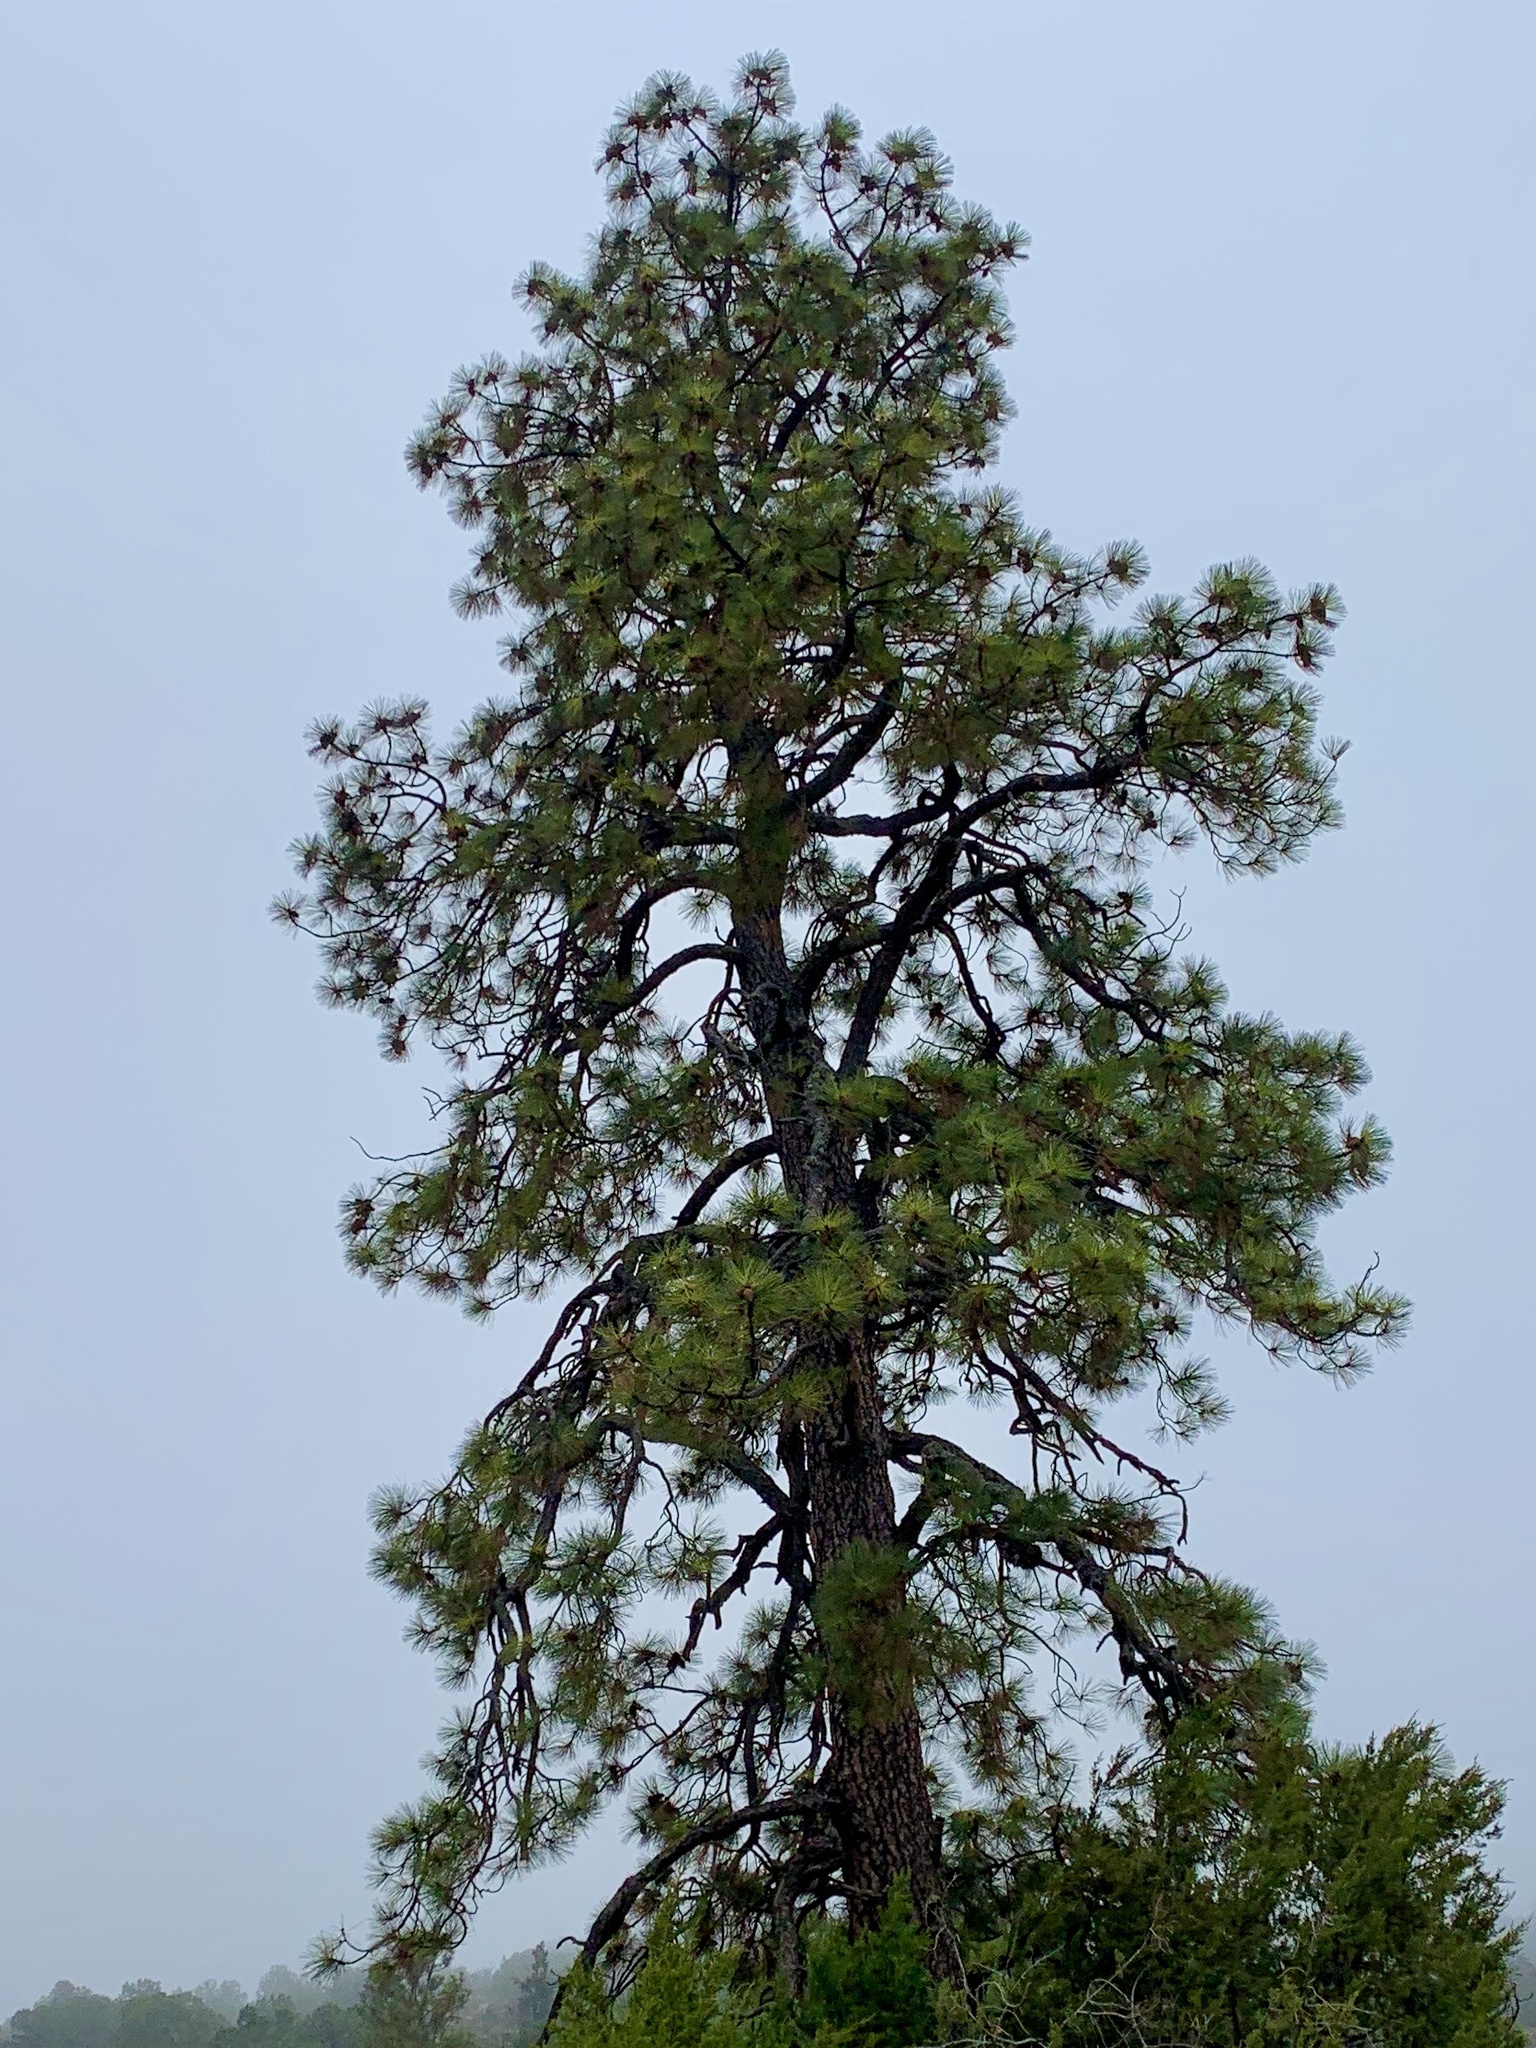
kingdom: Plantae
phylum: Tracheophyta
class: Pinopsida
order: Pinales
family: Pinaceae
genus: Pinus
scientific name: Pinus ponderosa
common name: Western yellow-pine
